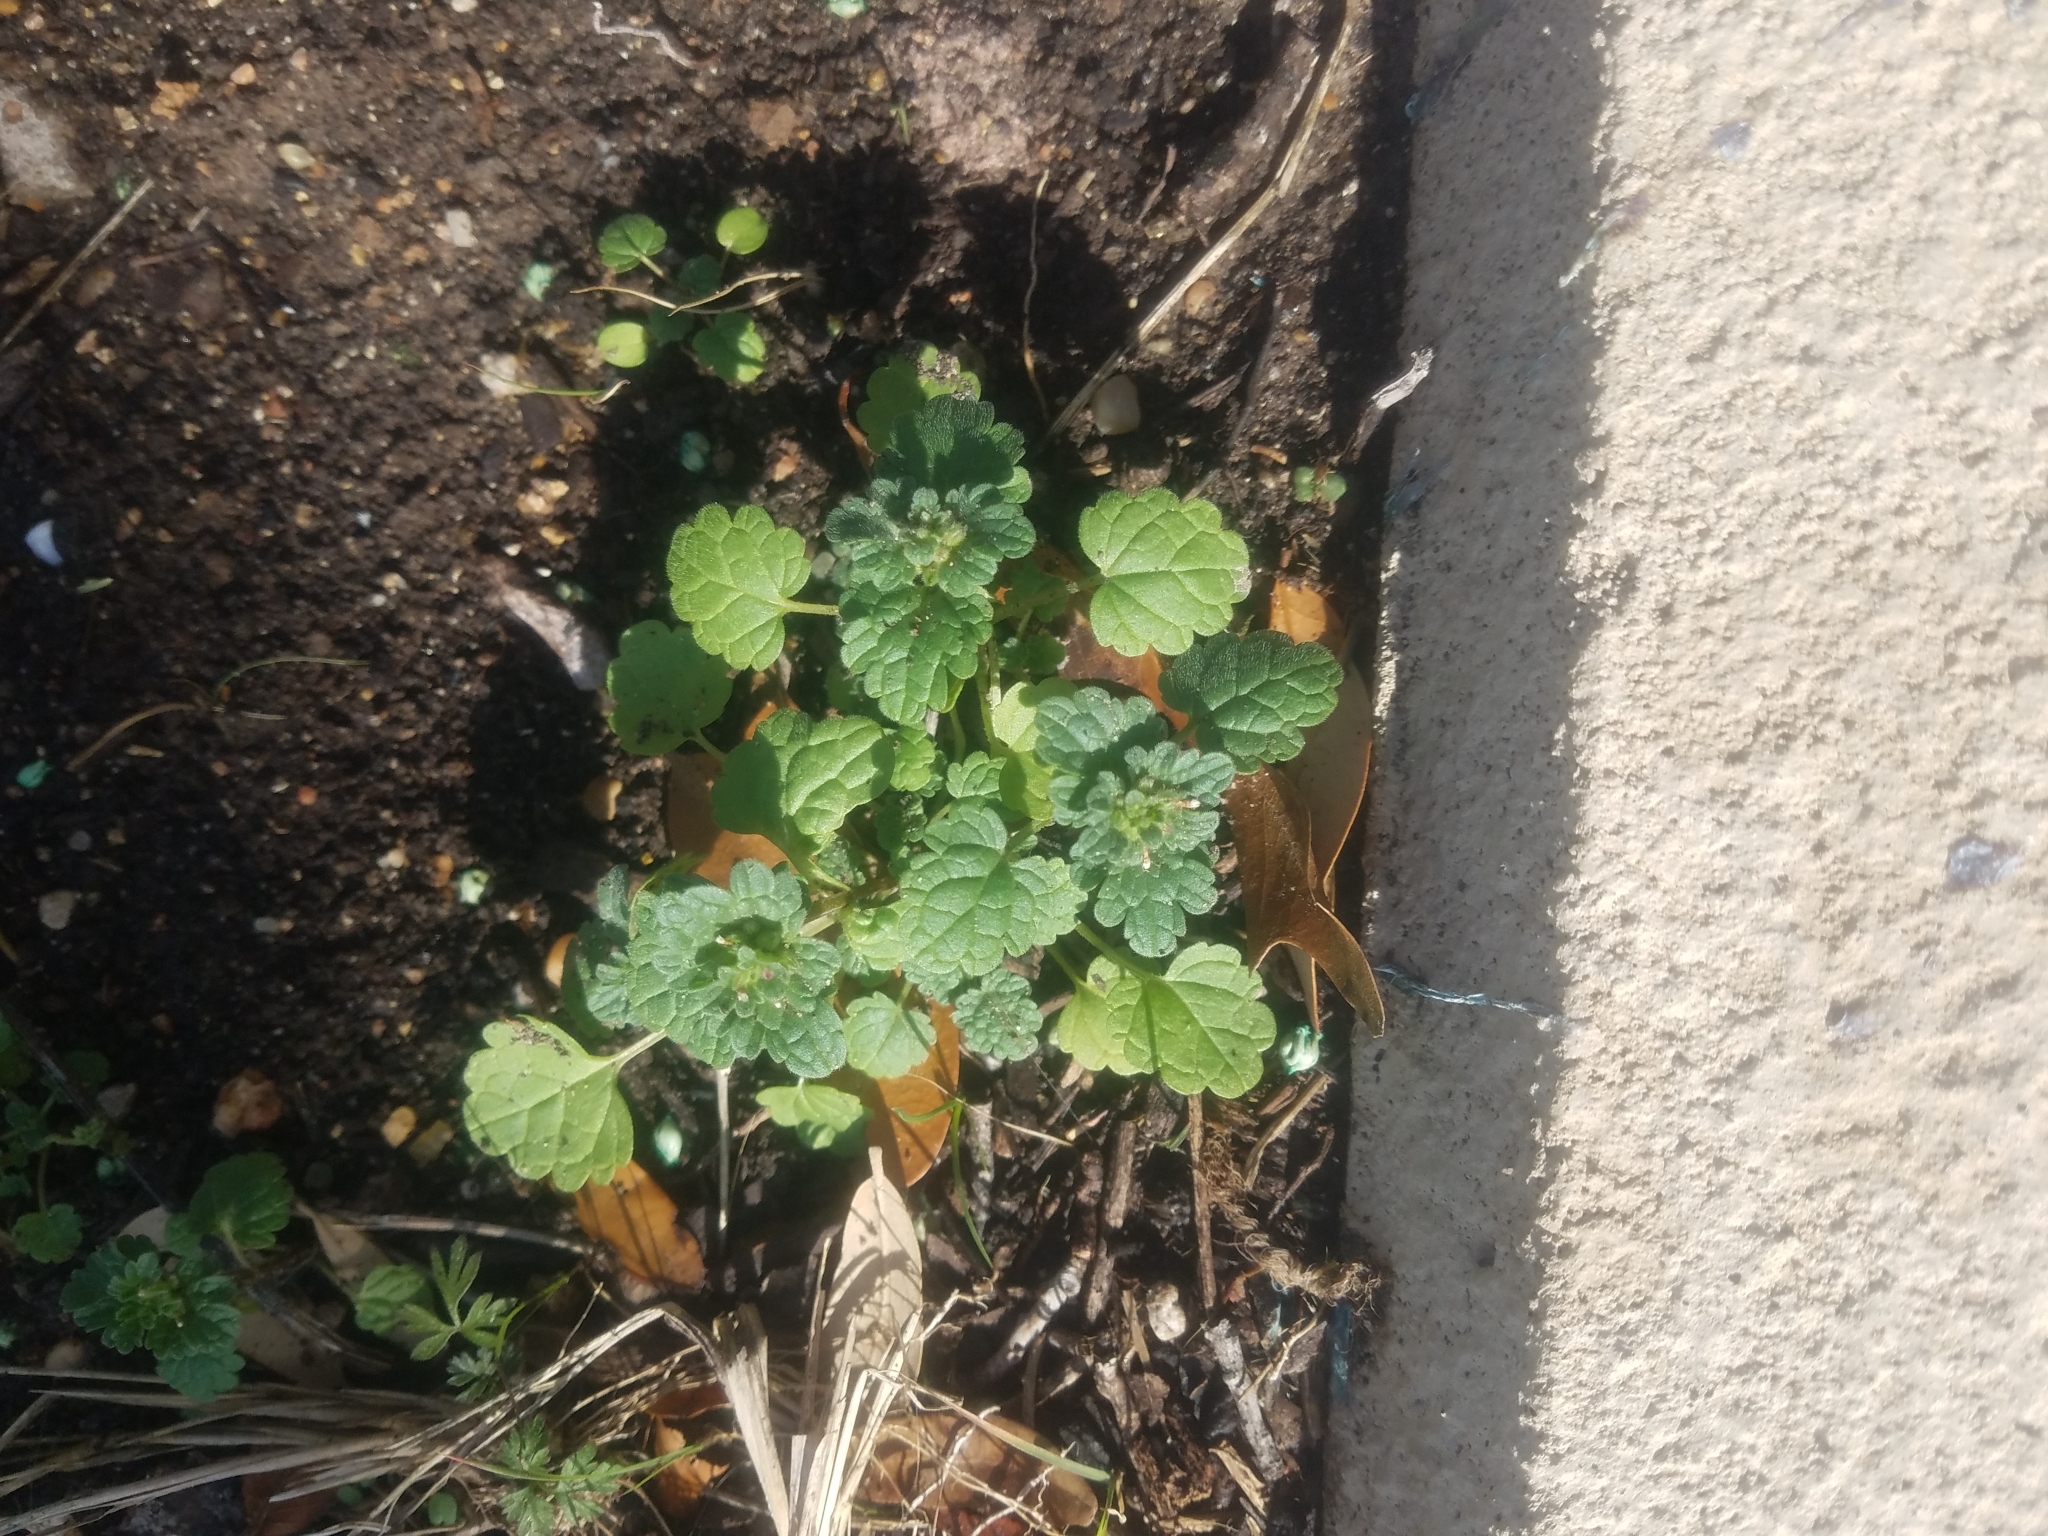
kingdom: Plantae
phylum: Tracheophyta
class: Magnoliopsida
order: Lamiales
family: Lamiaceae
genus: Lamium
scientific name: Lamium amplexicaule
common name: Henbit dead-nettle
